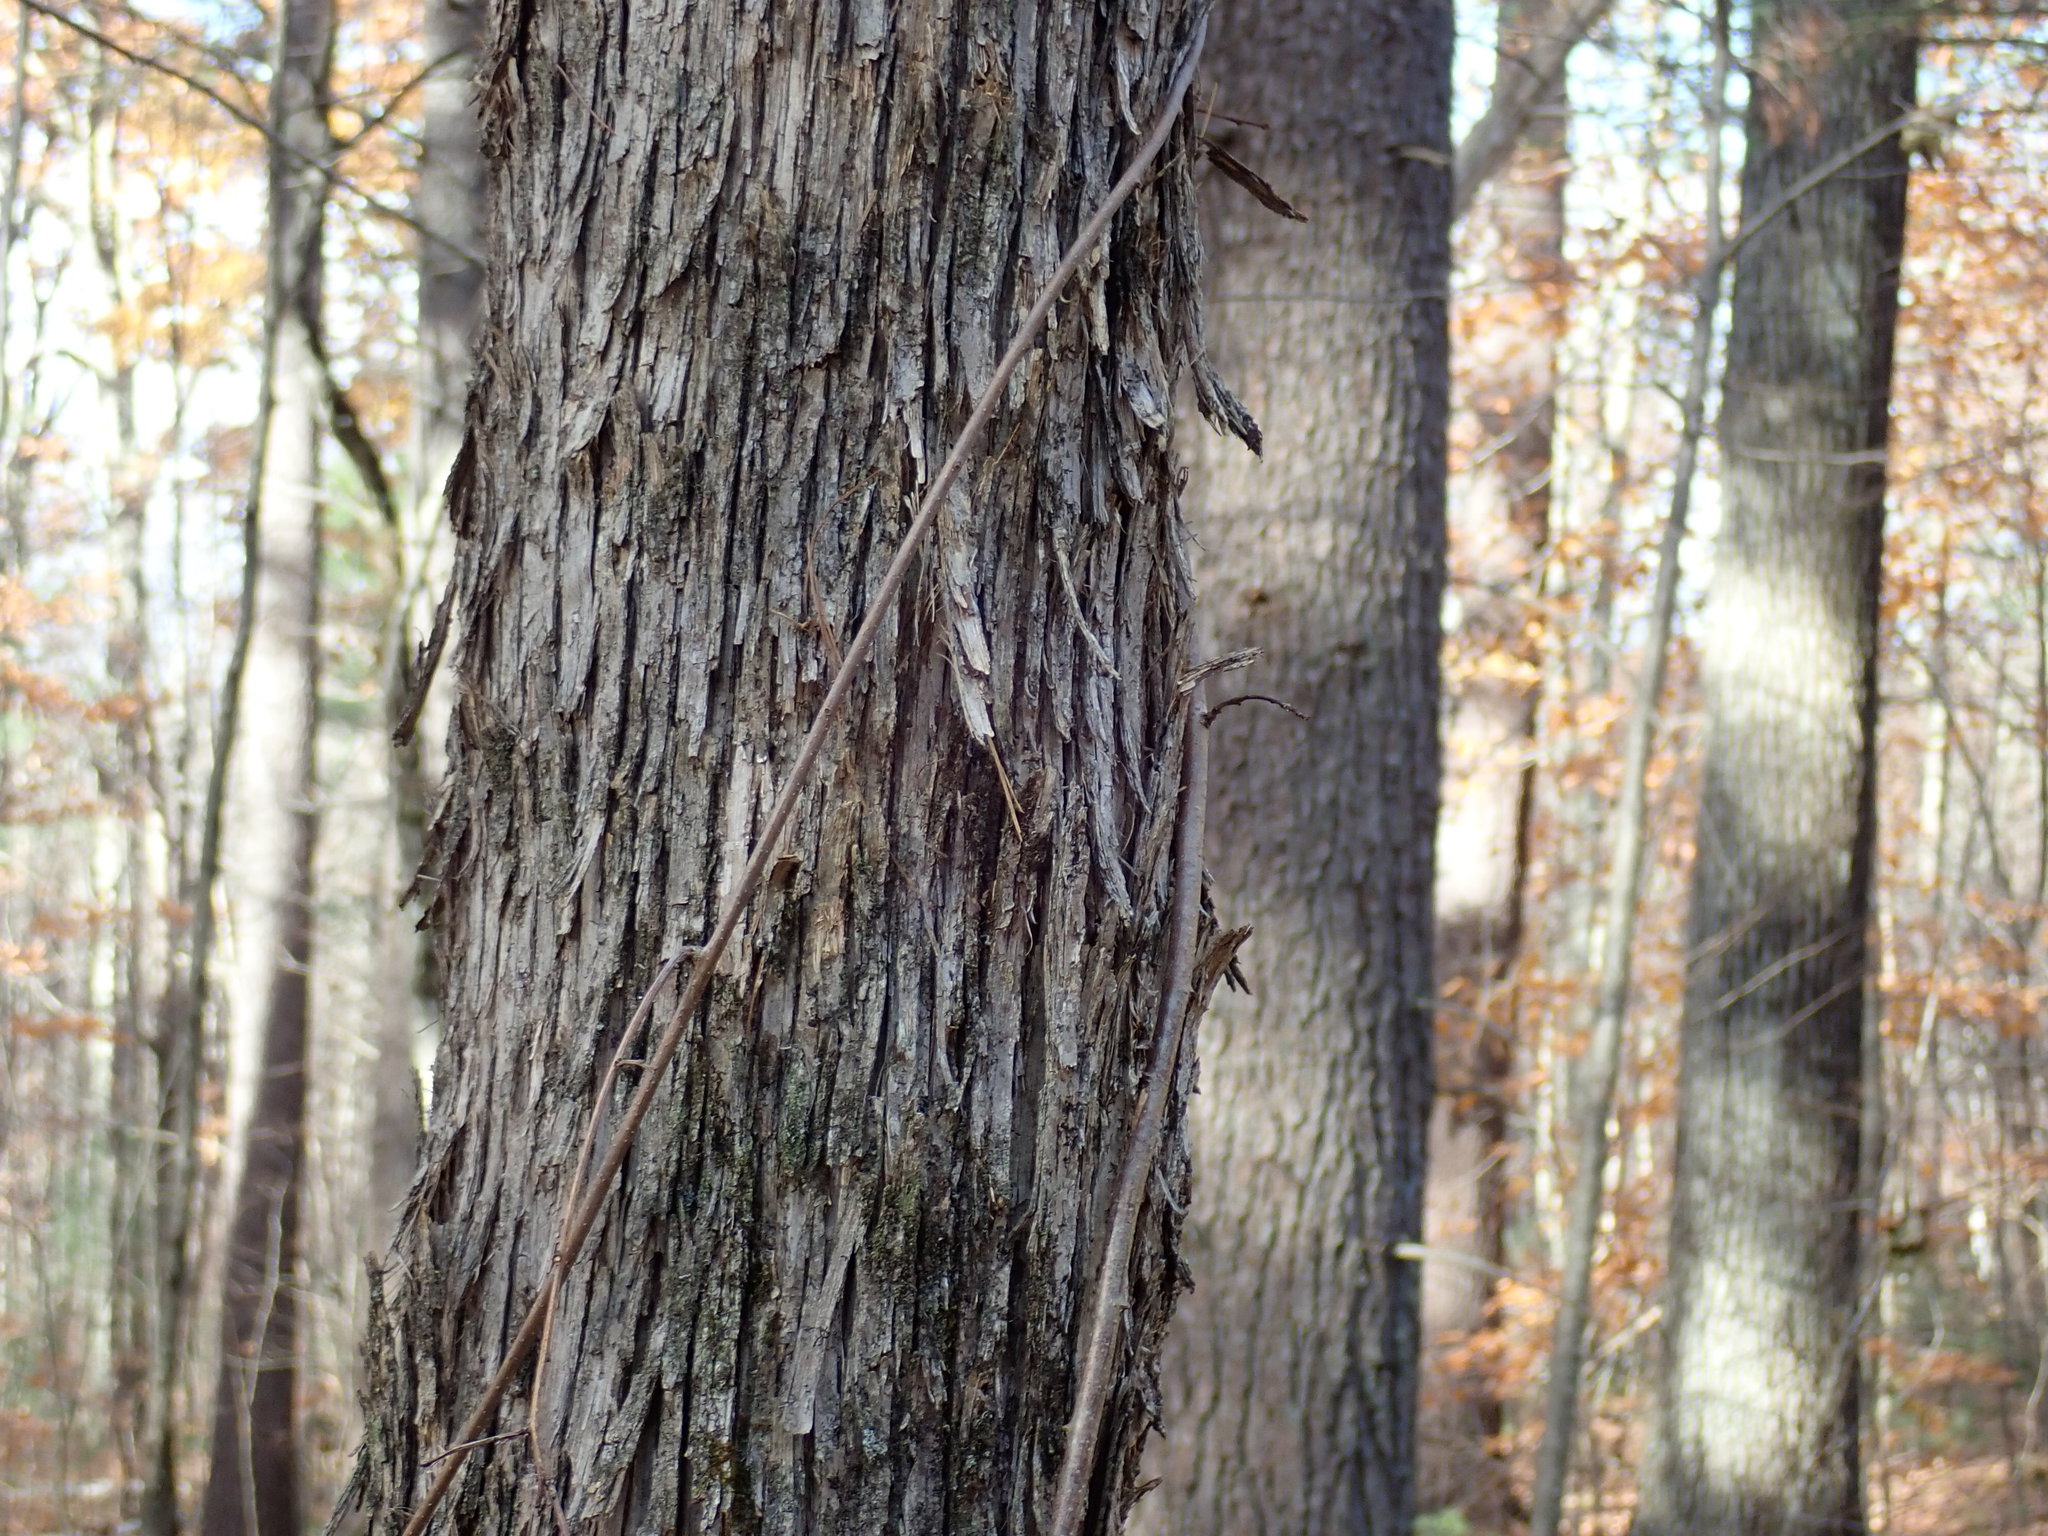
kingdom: Plantae
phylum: Tracheophyta
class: Magnoliopsida
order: Fagales
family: Betulaceae
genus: Ostrya
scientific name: Ostrya virginiana
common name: Ironwood
